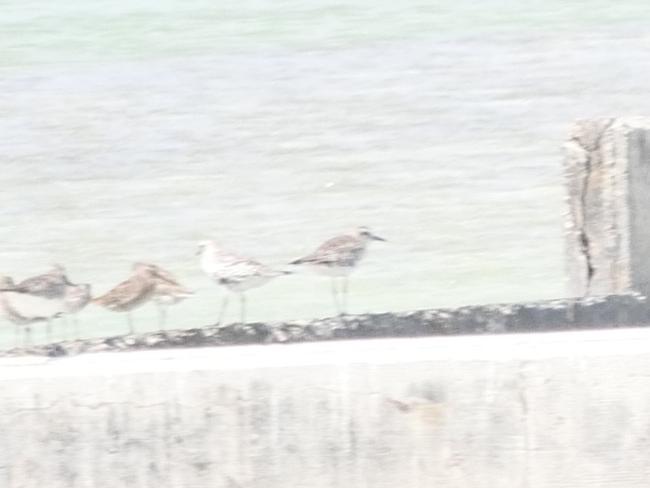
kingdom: Animalia
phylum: Chordata
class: Aves
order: Charadriiformes
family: Charadriidae
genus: Pluvialis
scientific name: Pluvialis squatarola
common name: Grey plover
